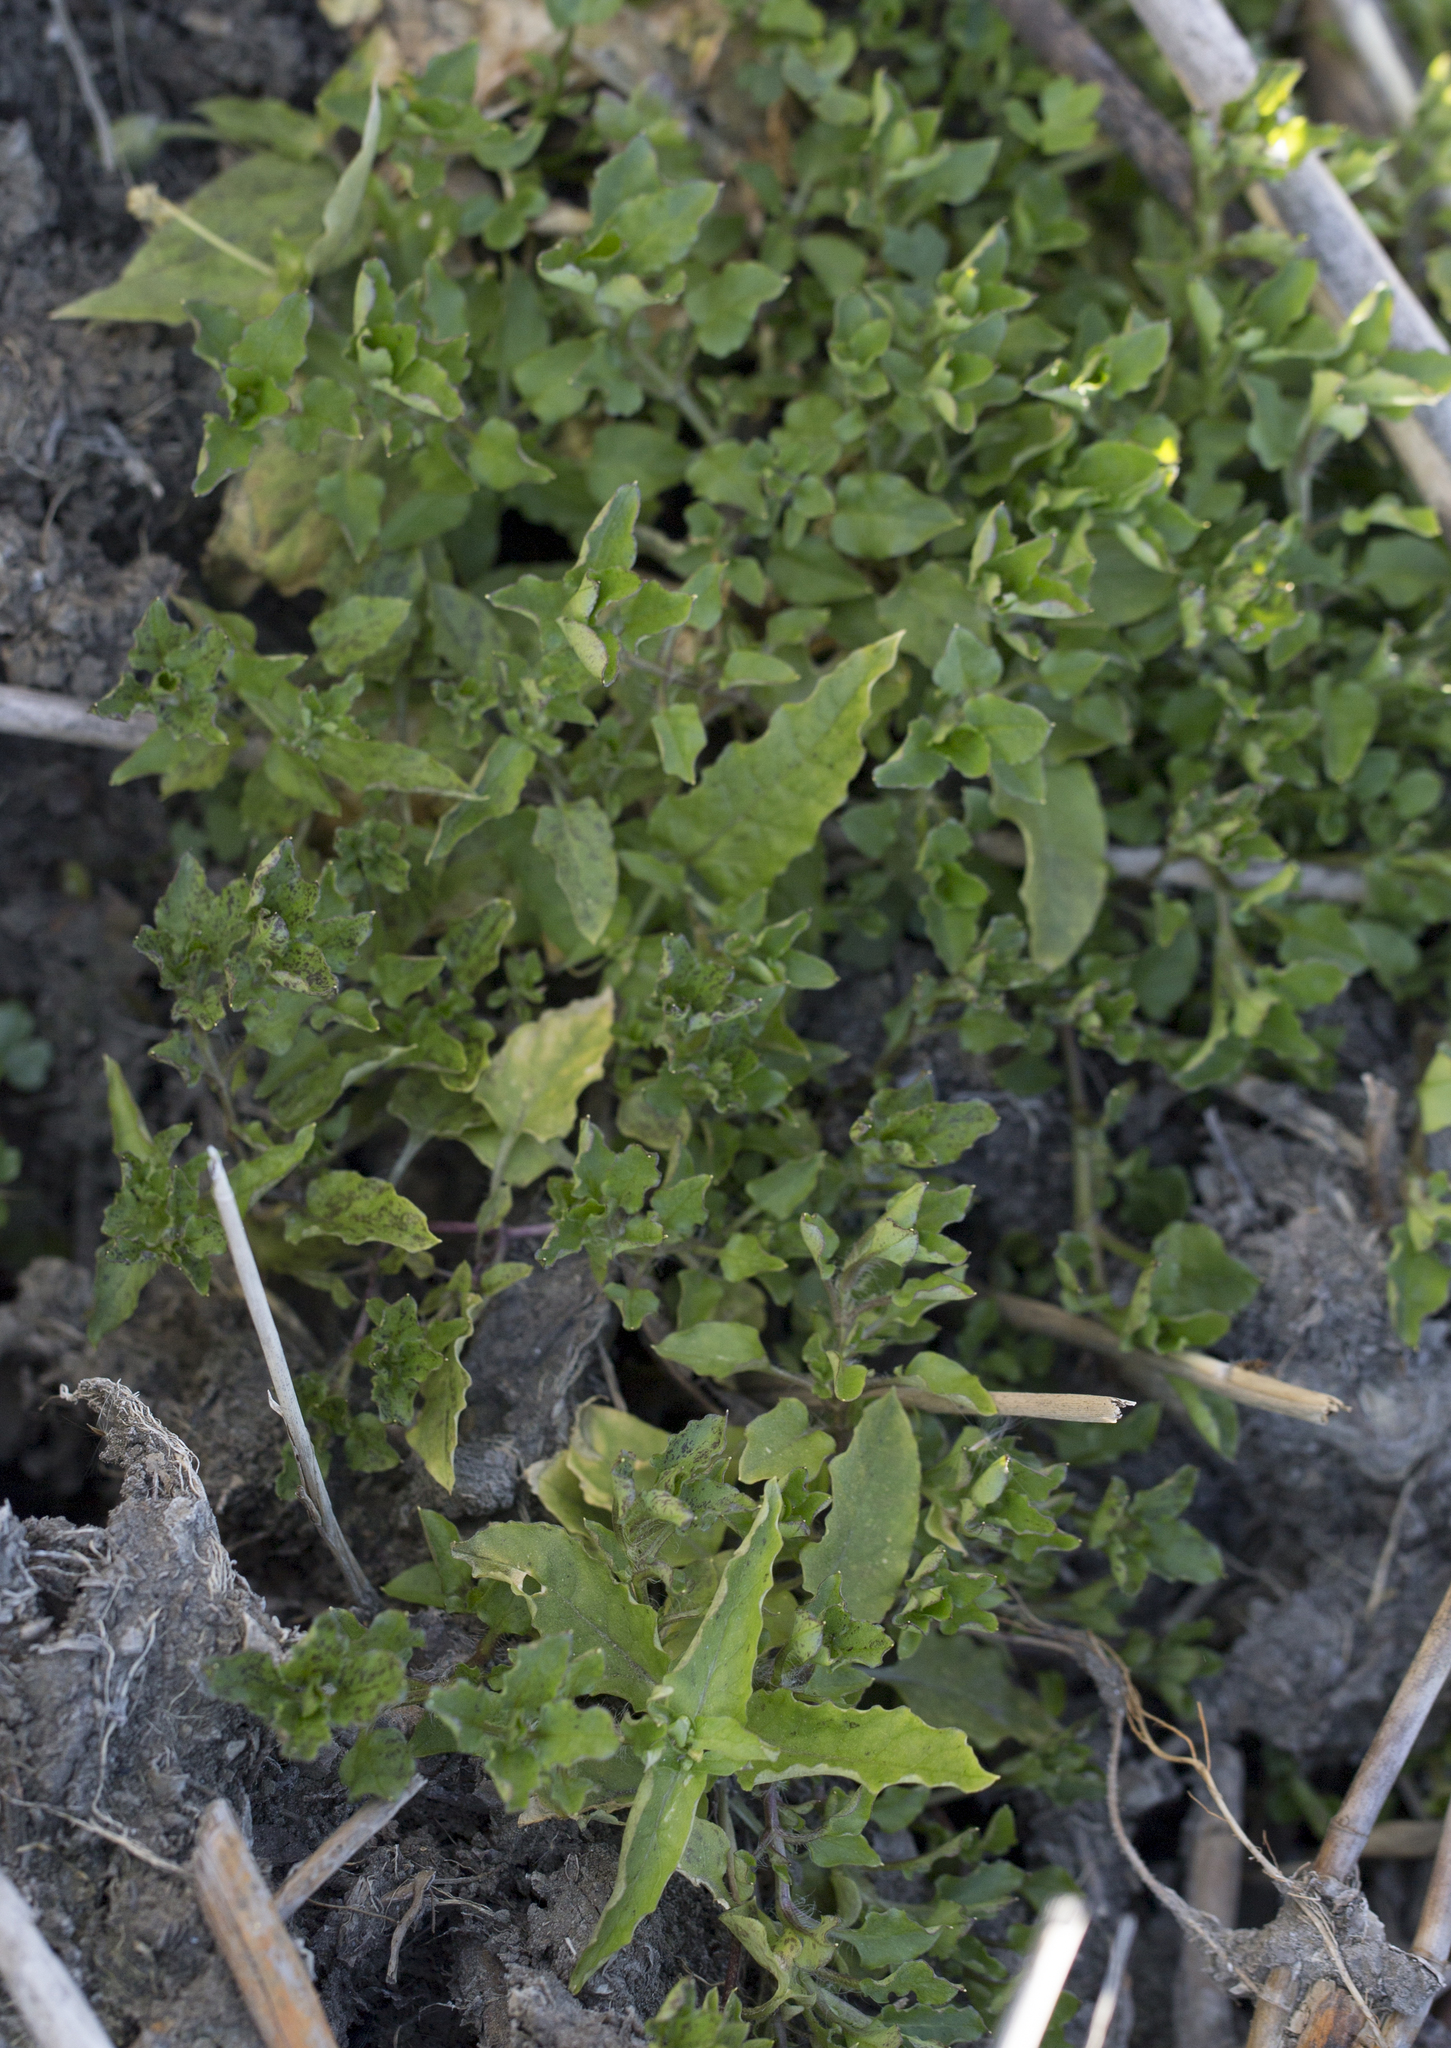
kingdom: Plantae
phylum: Tracheophyta
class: Magnoliopsida
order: Caryophyllales
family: Caryophyllaceae
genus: Stellaria
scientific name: Stellaria aquatica
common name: Water chickweed
